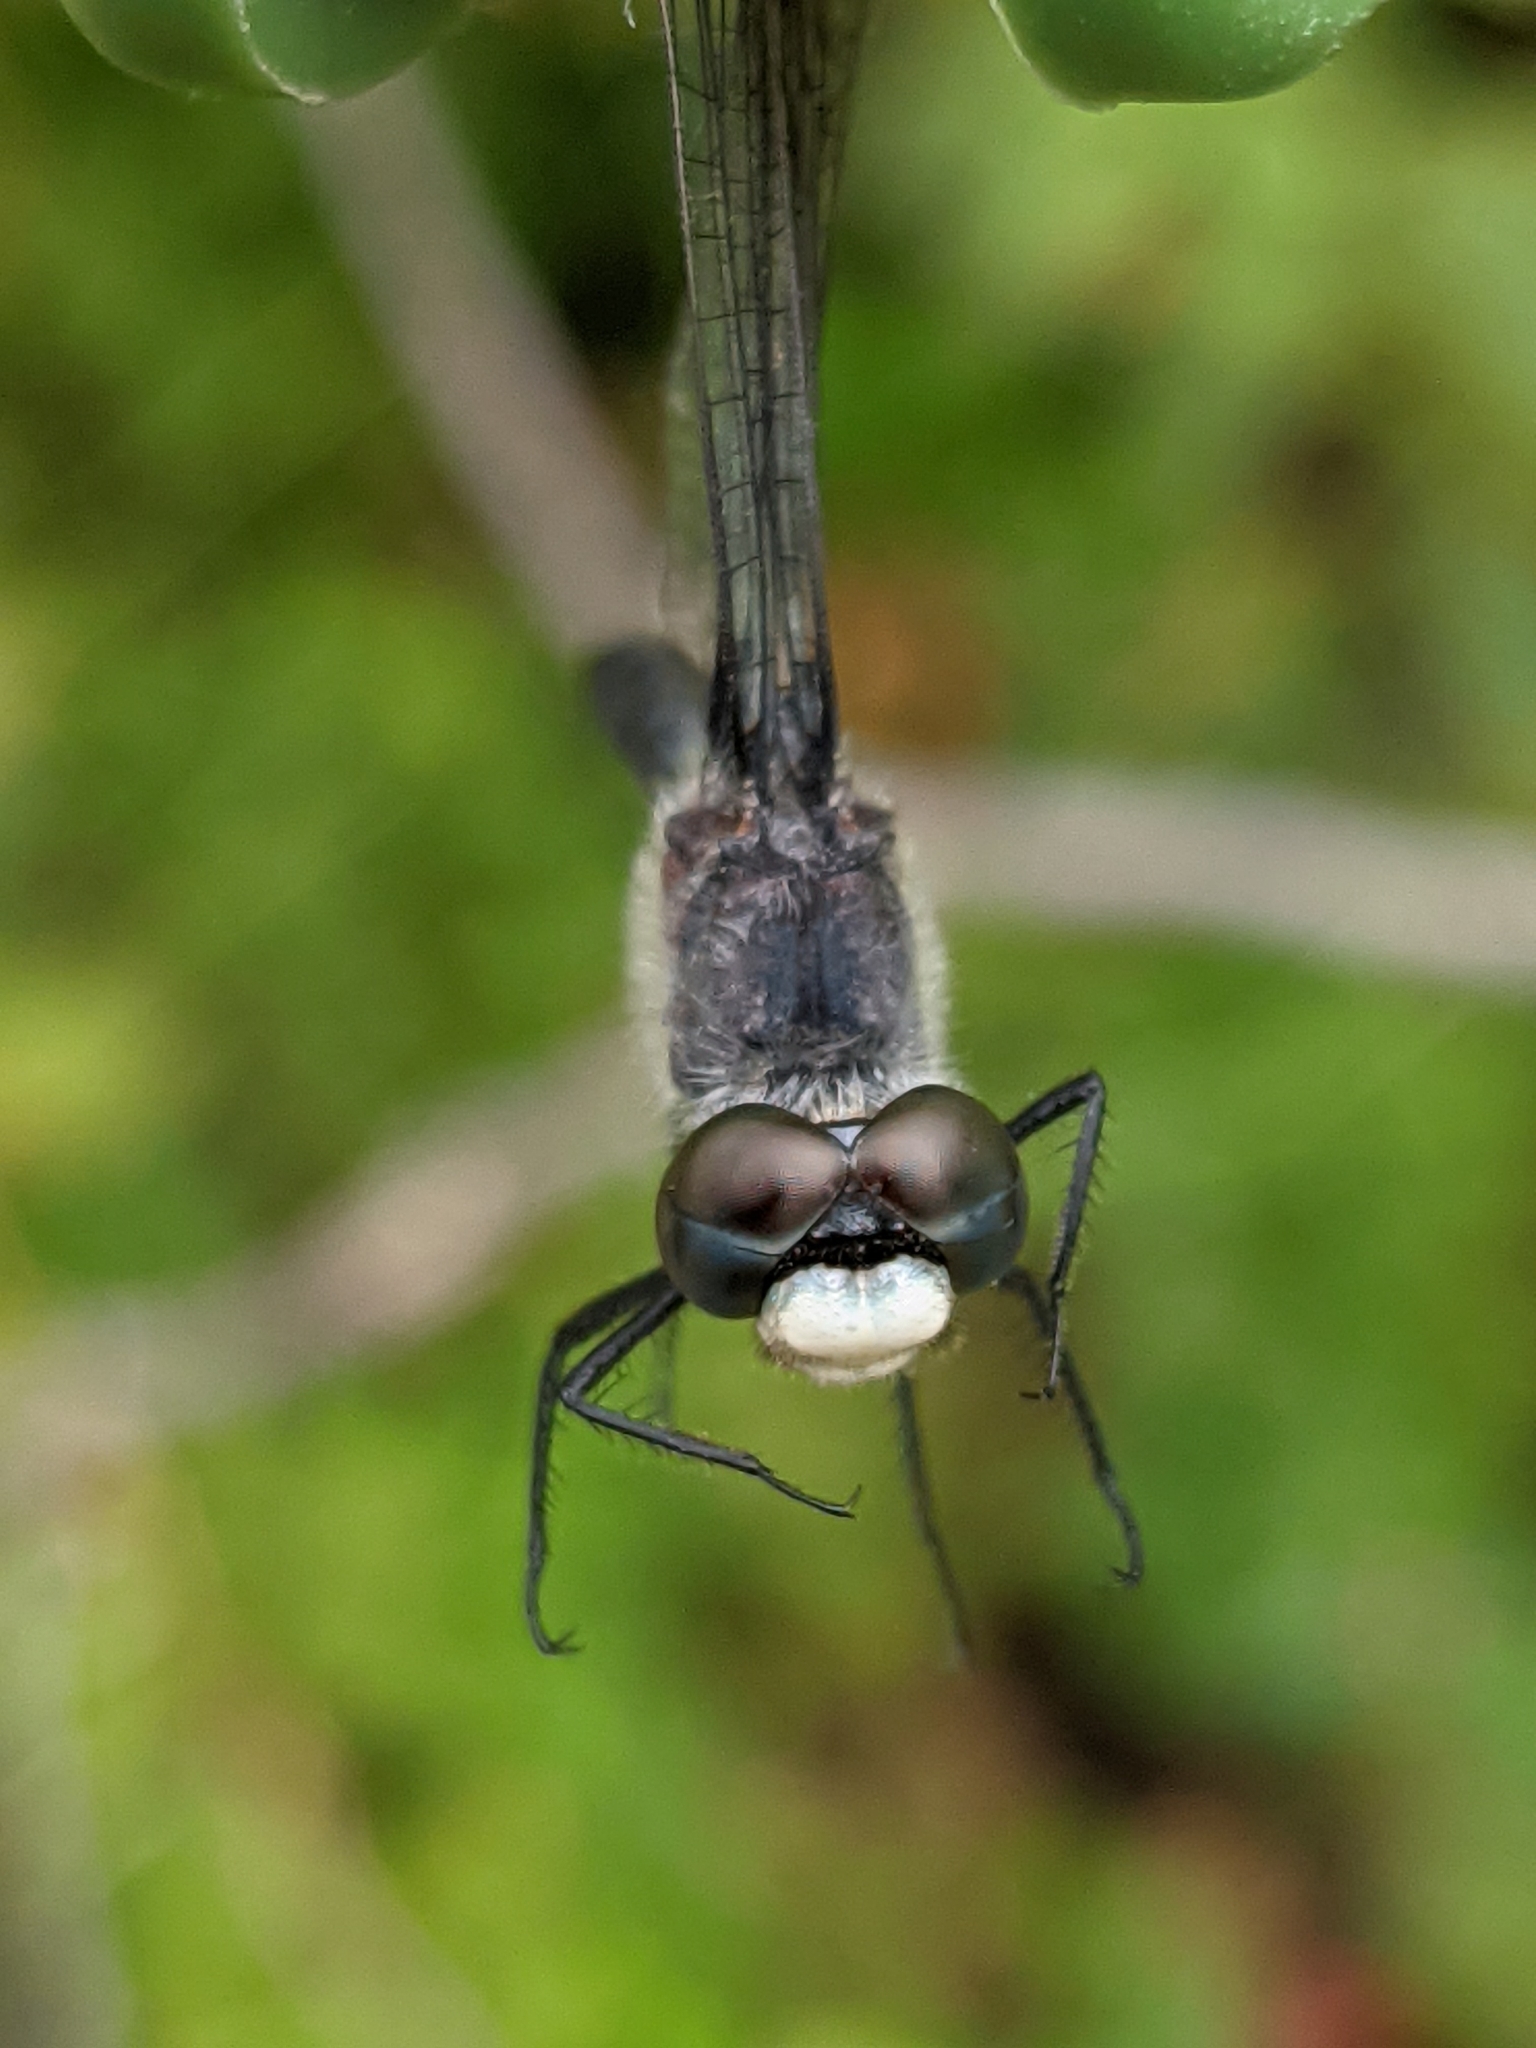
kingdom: Animalia
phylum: Arthropoda
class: Insecta
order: Odonata
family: Libellulidae
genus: Leucorrhinia
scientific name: Leucorrhinia frigida
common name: Frosted whiteface
